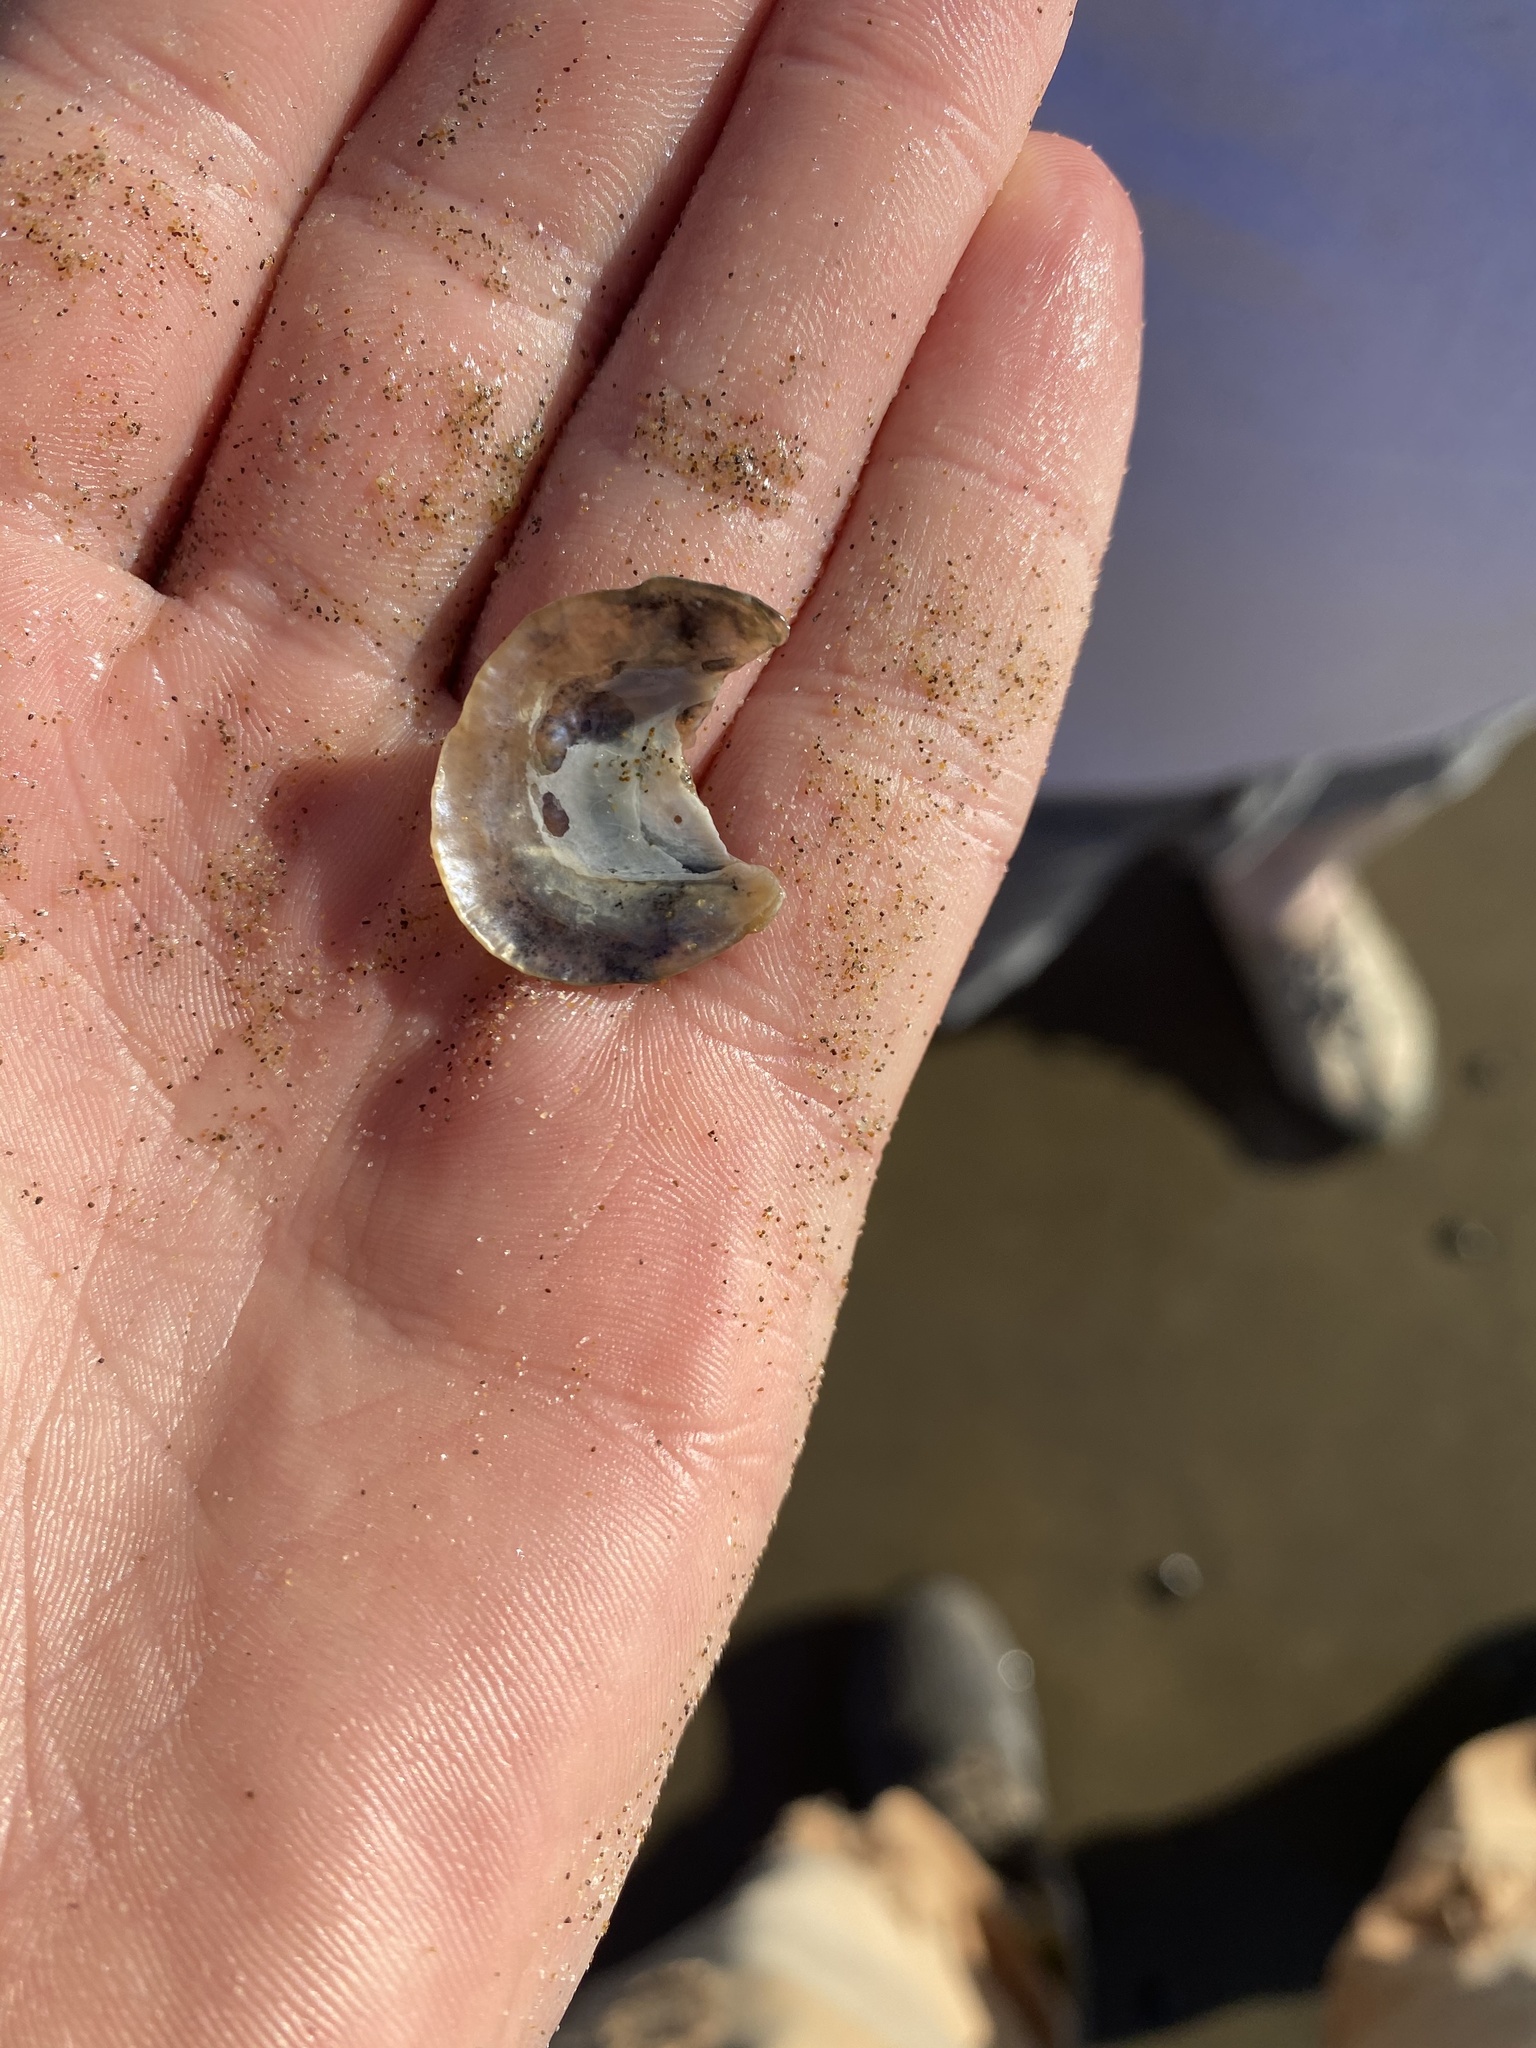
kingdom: Animalia
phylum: Mollusca
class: Bivalvia
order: Pectinida
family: Anomiidae
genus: Pododesmus
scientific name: Pododesmus macrochisma
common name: Alaska jingle
